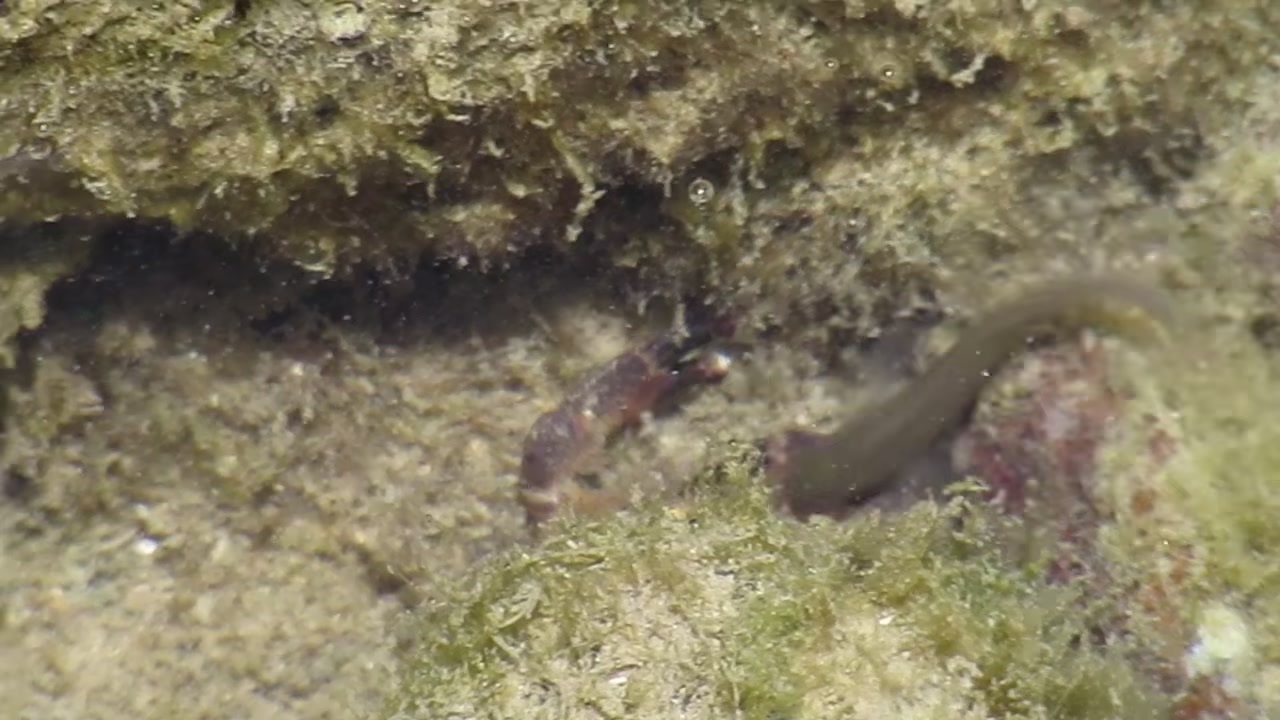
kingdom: Animalia
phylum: Chordata
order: Perciformes
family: Blenniidae
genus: Istiblennius
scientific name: Istiblennius meleagris
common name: Peacock rockskipper
